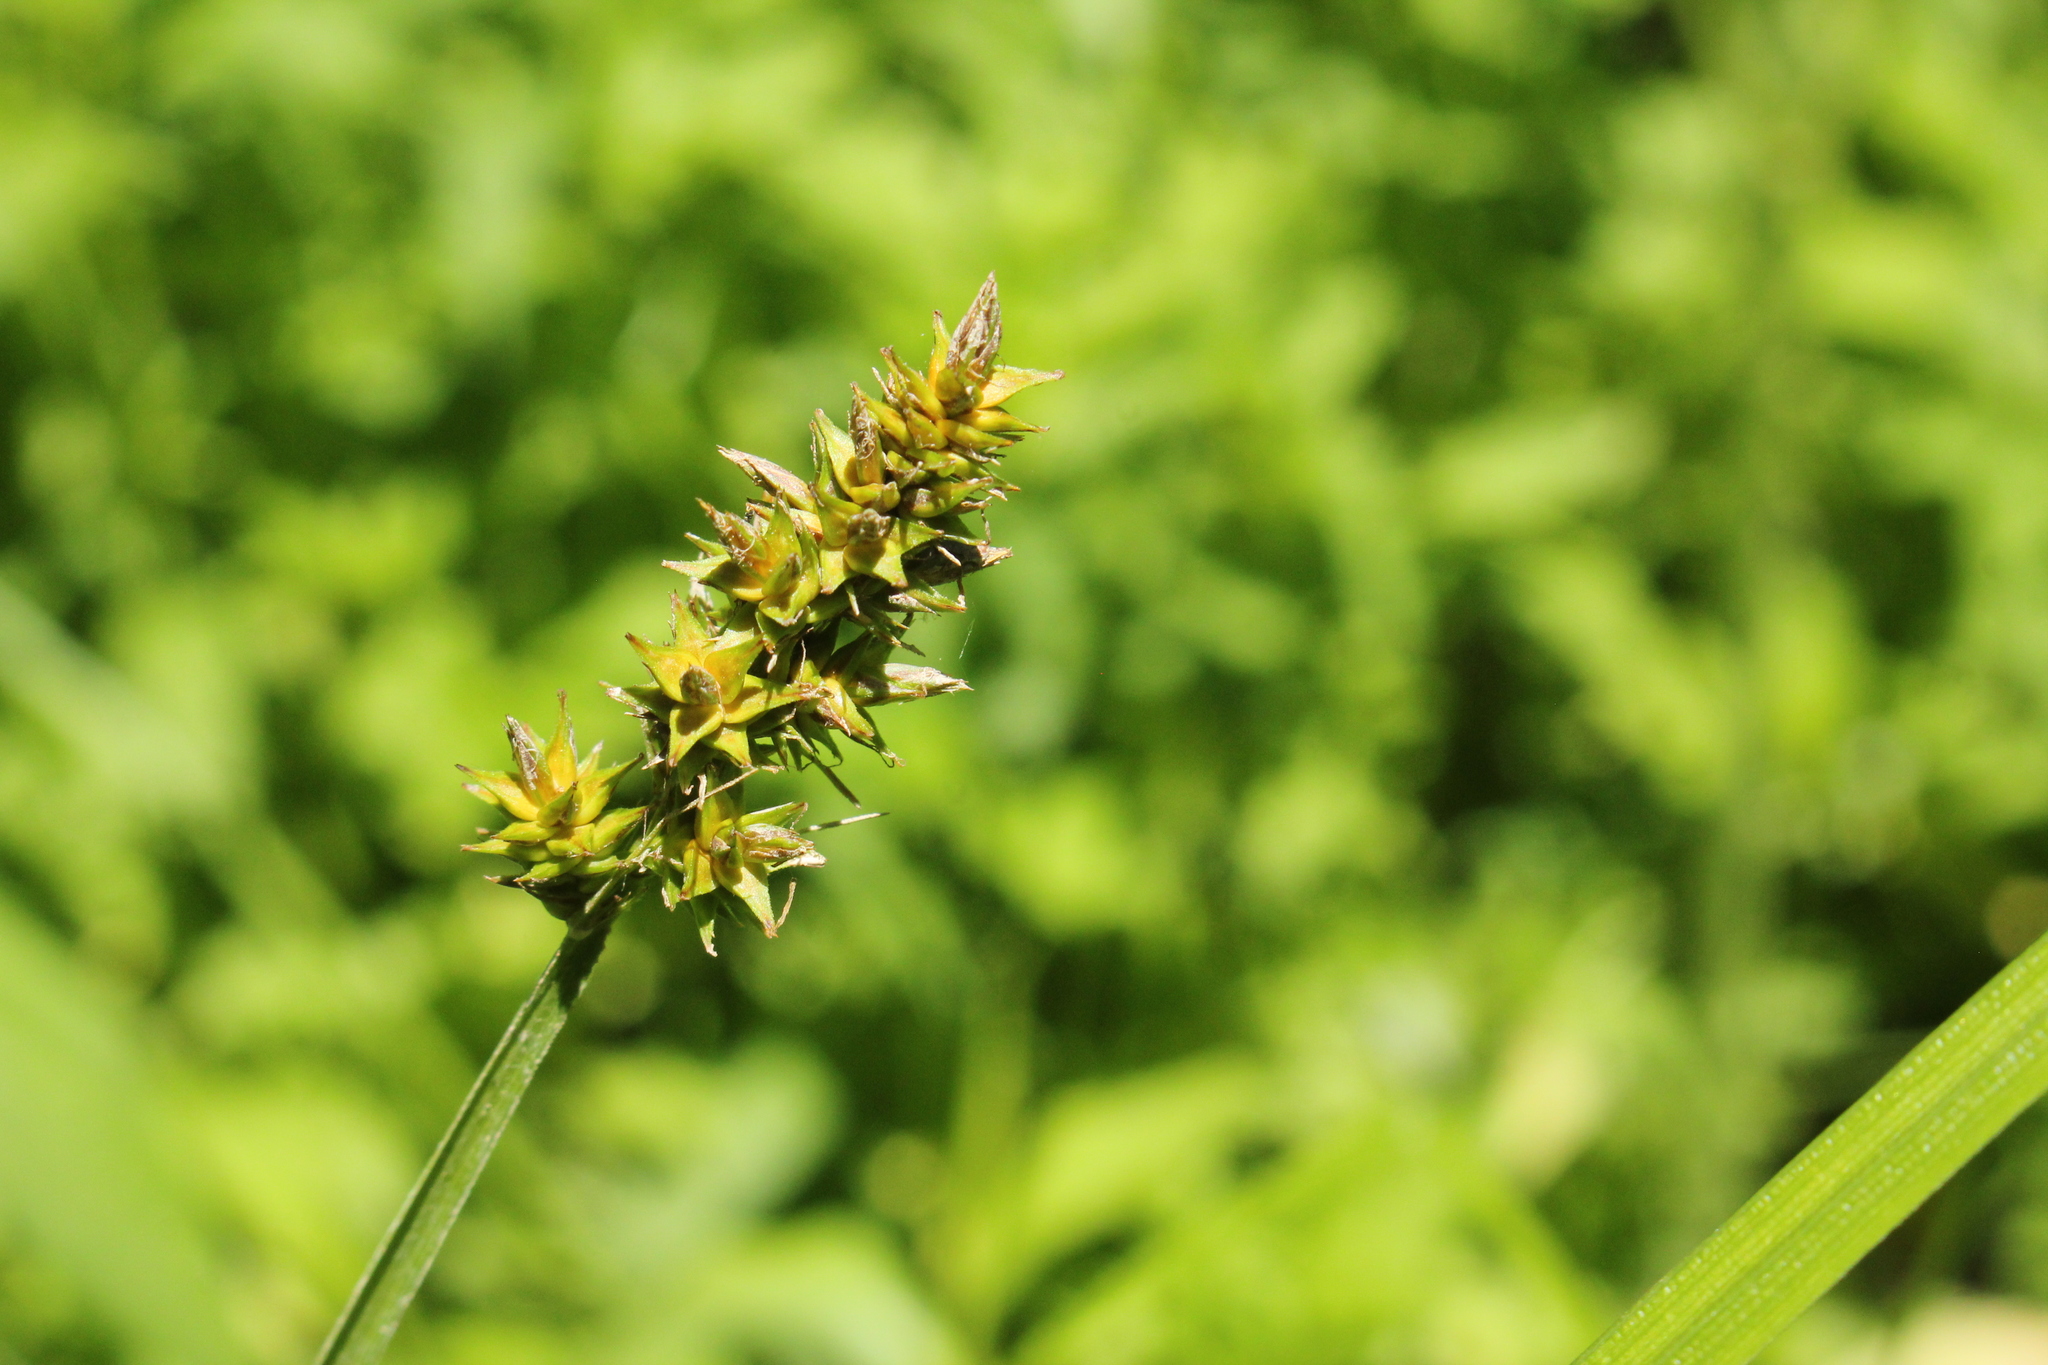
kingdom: Plantae
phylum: Tracheophyta
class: Liliopsida
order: Poales
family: Cyperaceae
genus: Carex
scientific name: Carex alopecoidea
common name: Brown-headed fox sedge
